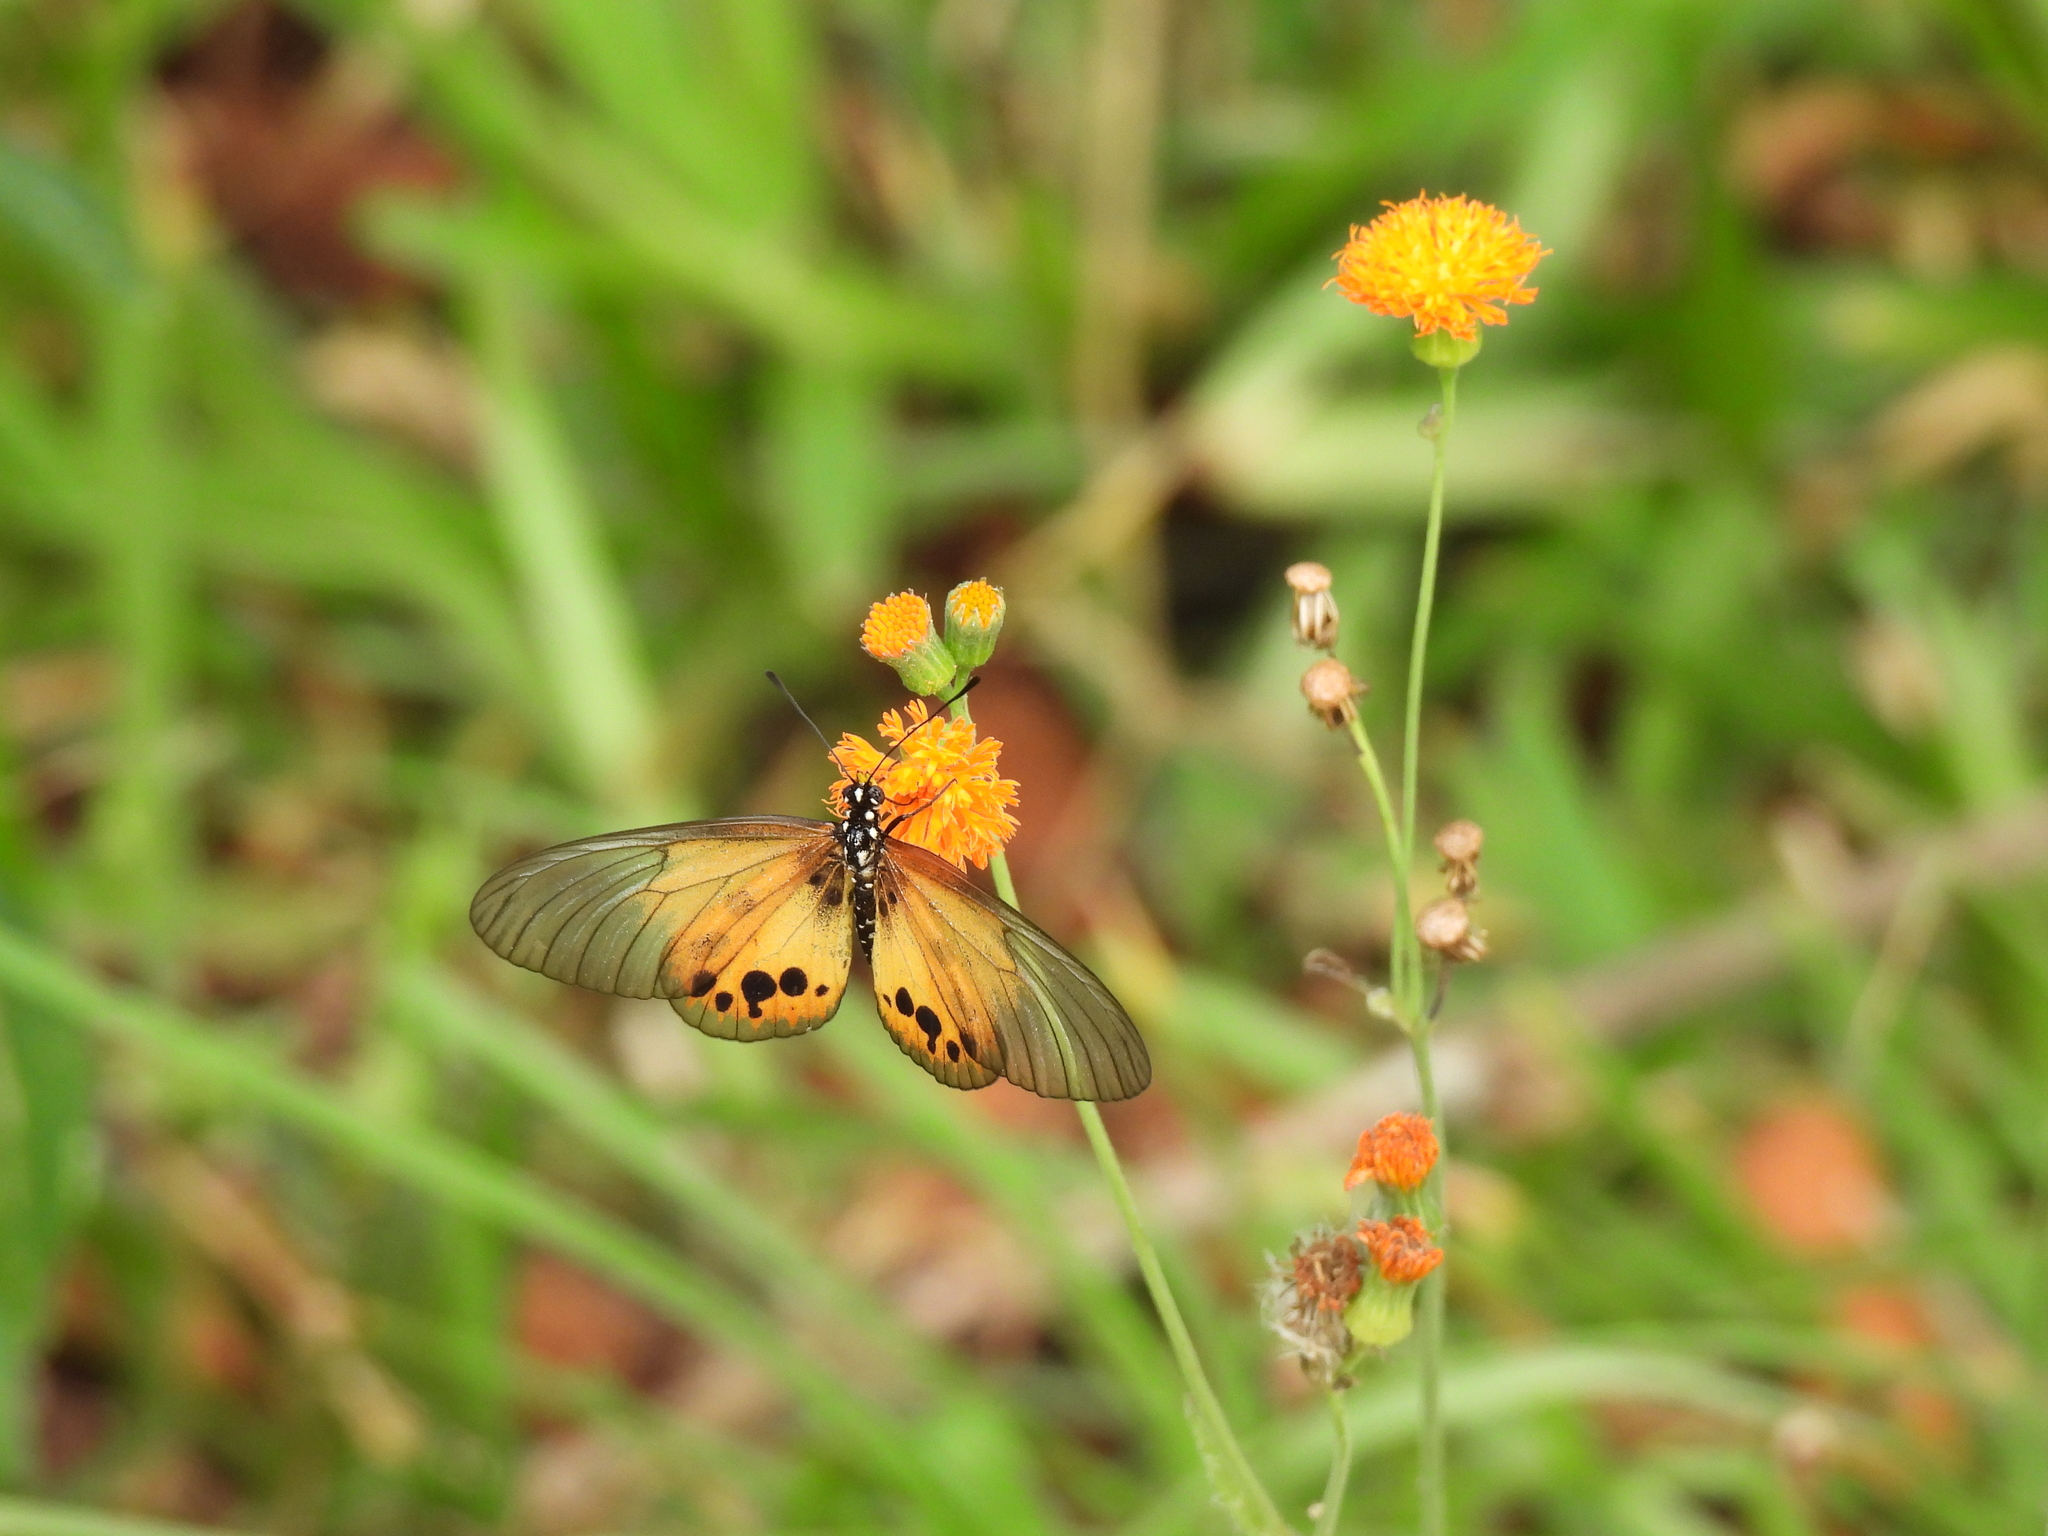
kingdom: Animalia
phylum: Arthropoda
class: Insecta
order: Lepidoptera
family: Nymphalidae
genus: Acraea
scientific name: Acraea
